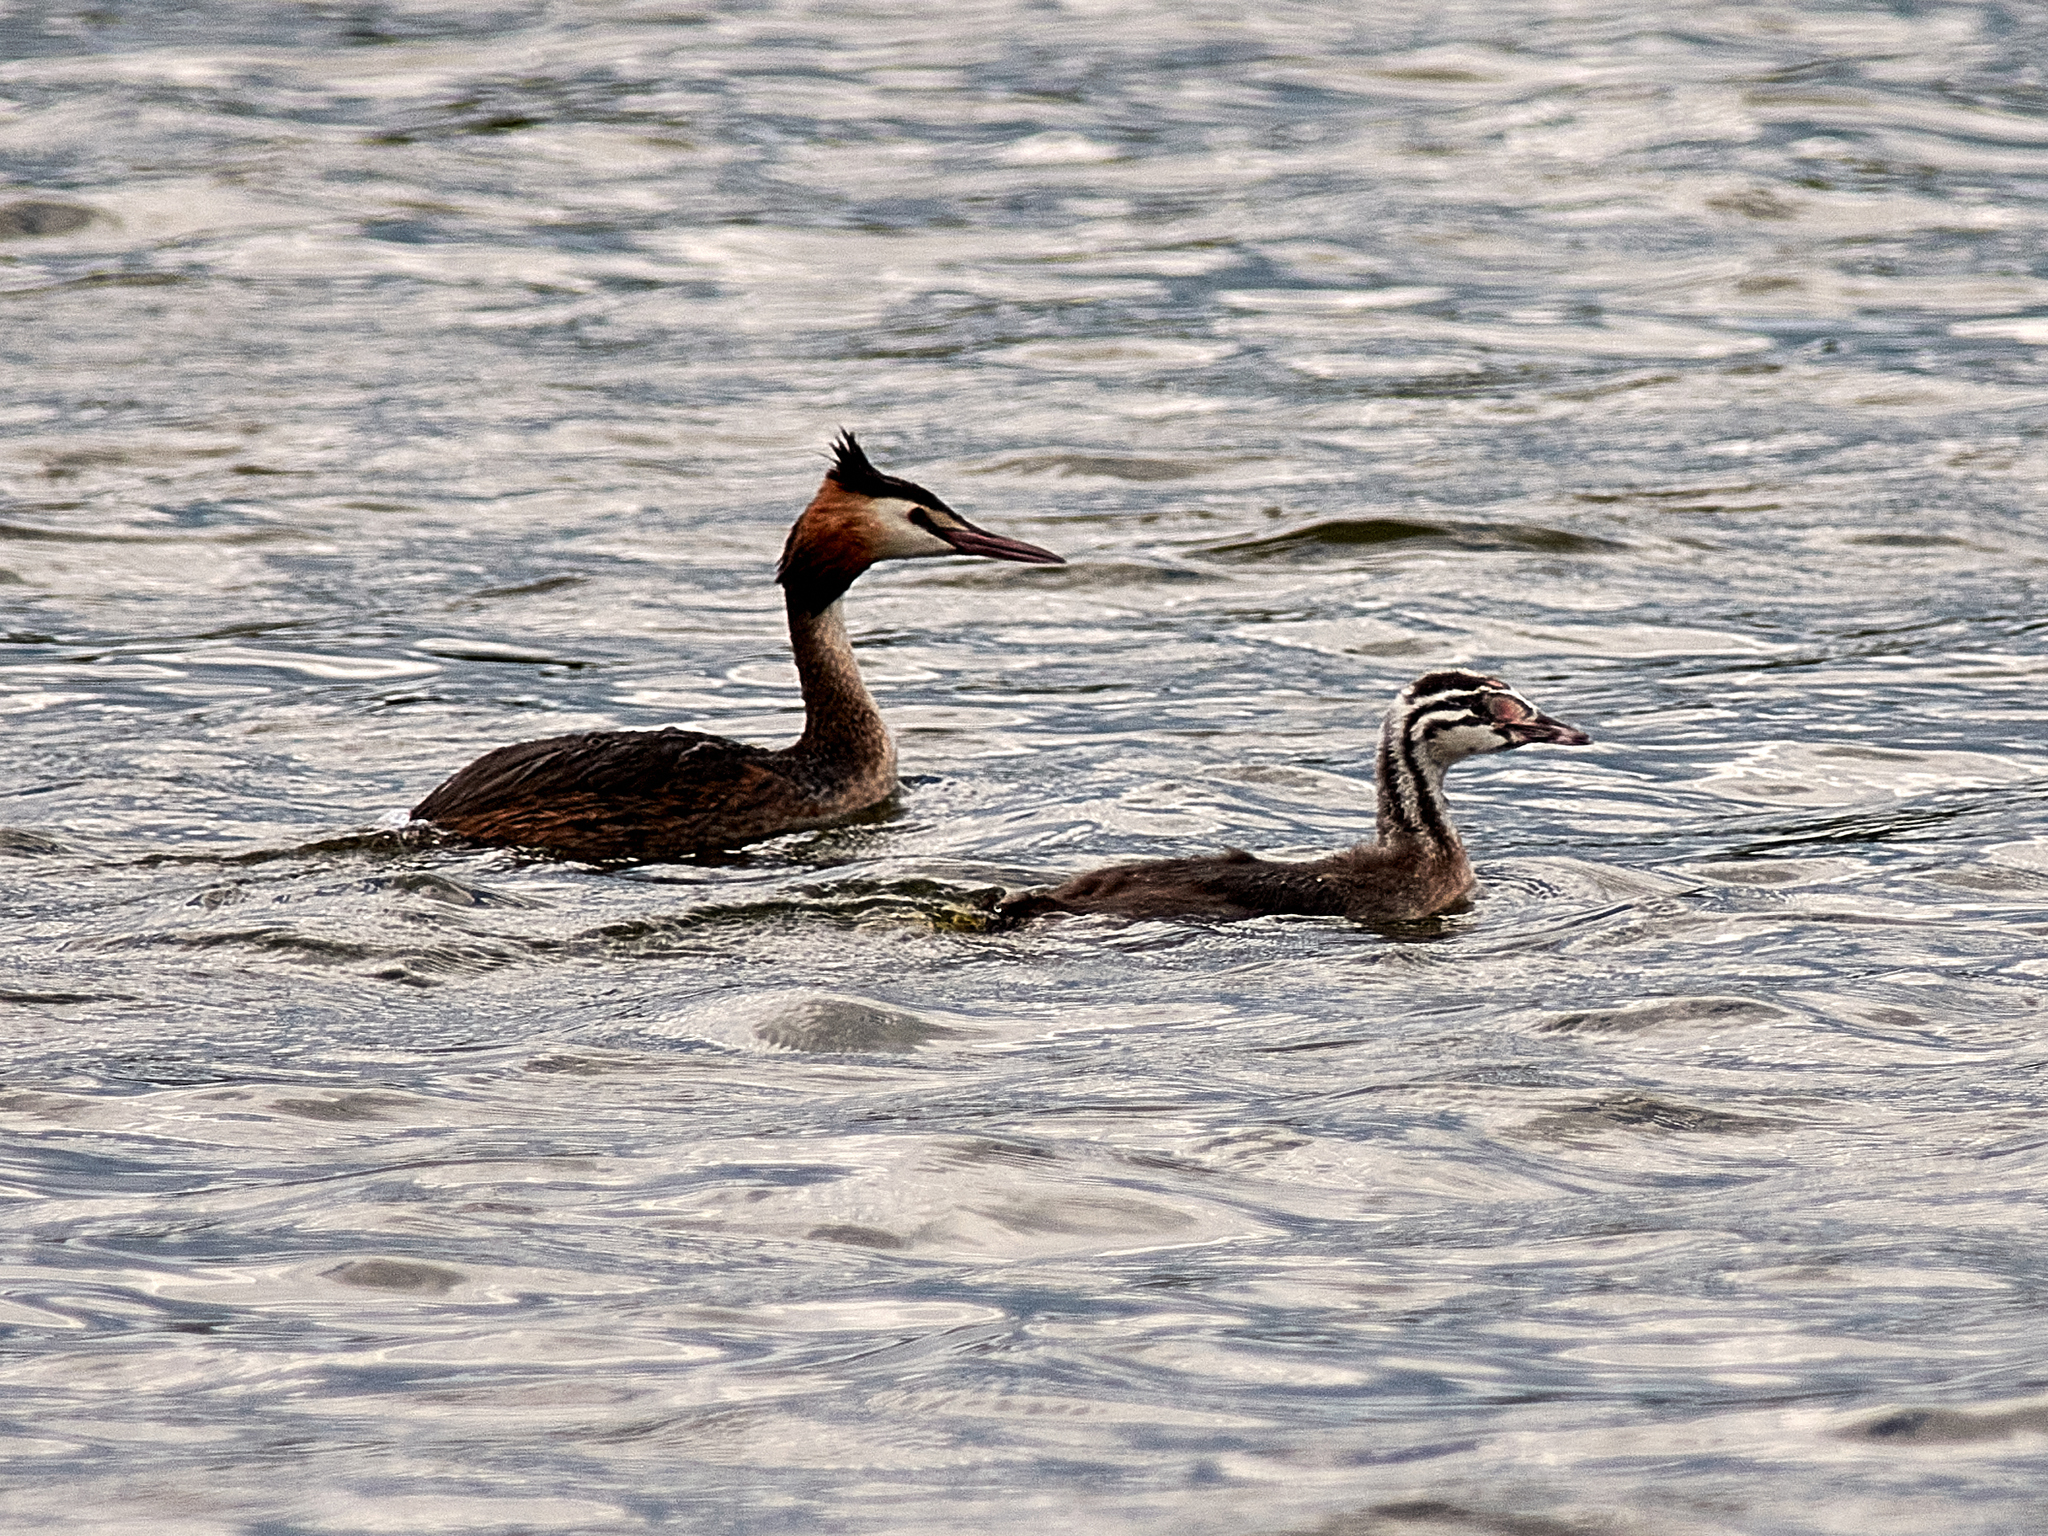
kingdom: Animalia
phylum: Chordata
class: Aves
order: Podicipediformes
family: Podicipedidae
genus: Podiceps
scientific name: Podiceps cristatus
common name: Great crested grebe
